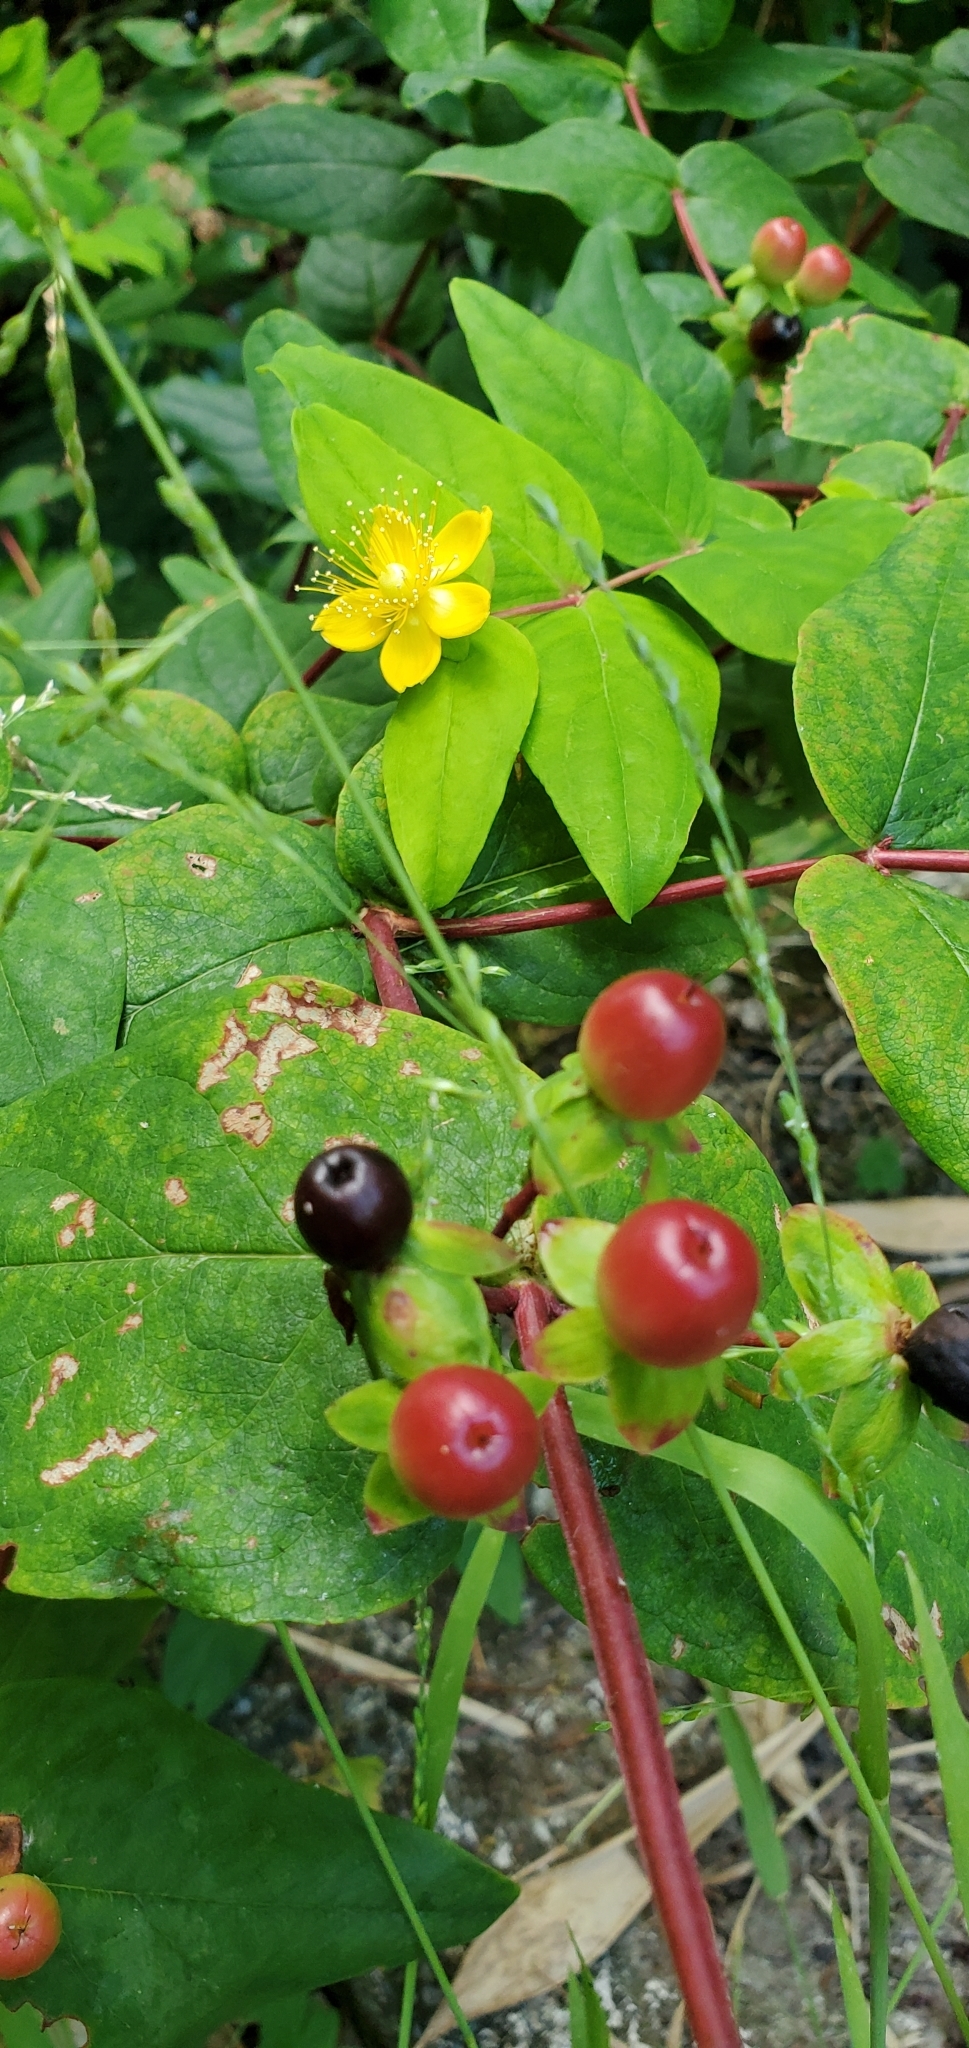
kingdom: Plantae
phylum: Tracheophyta
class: Magnoliopsida
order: Malpighiales
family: Hypericaceae
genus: Hypericum
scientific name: Hypericum androsaemum
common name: Sweet-amber
